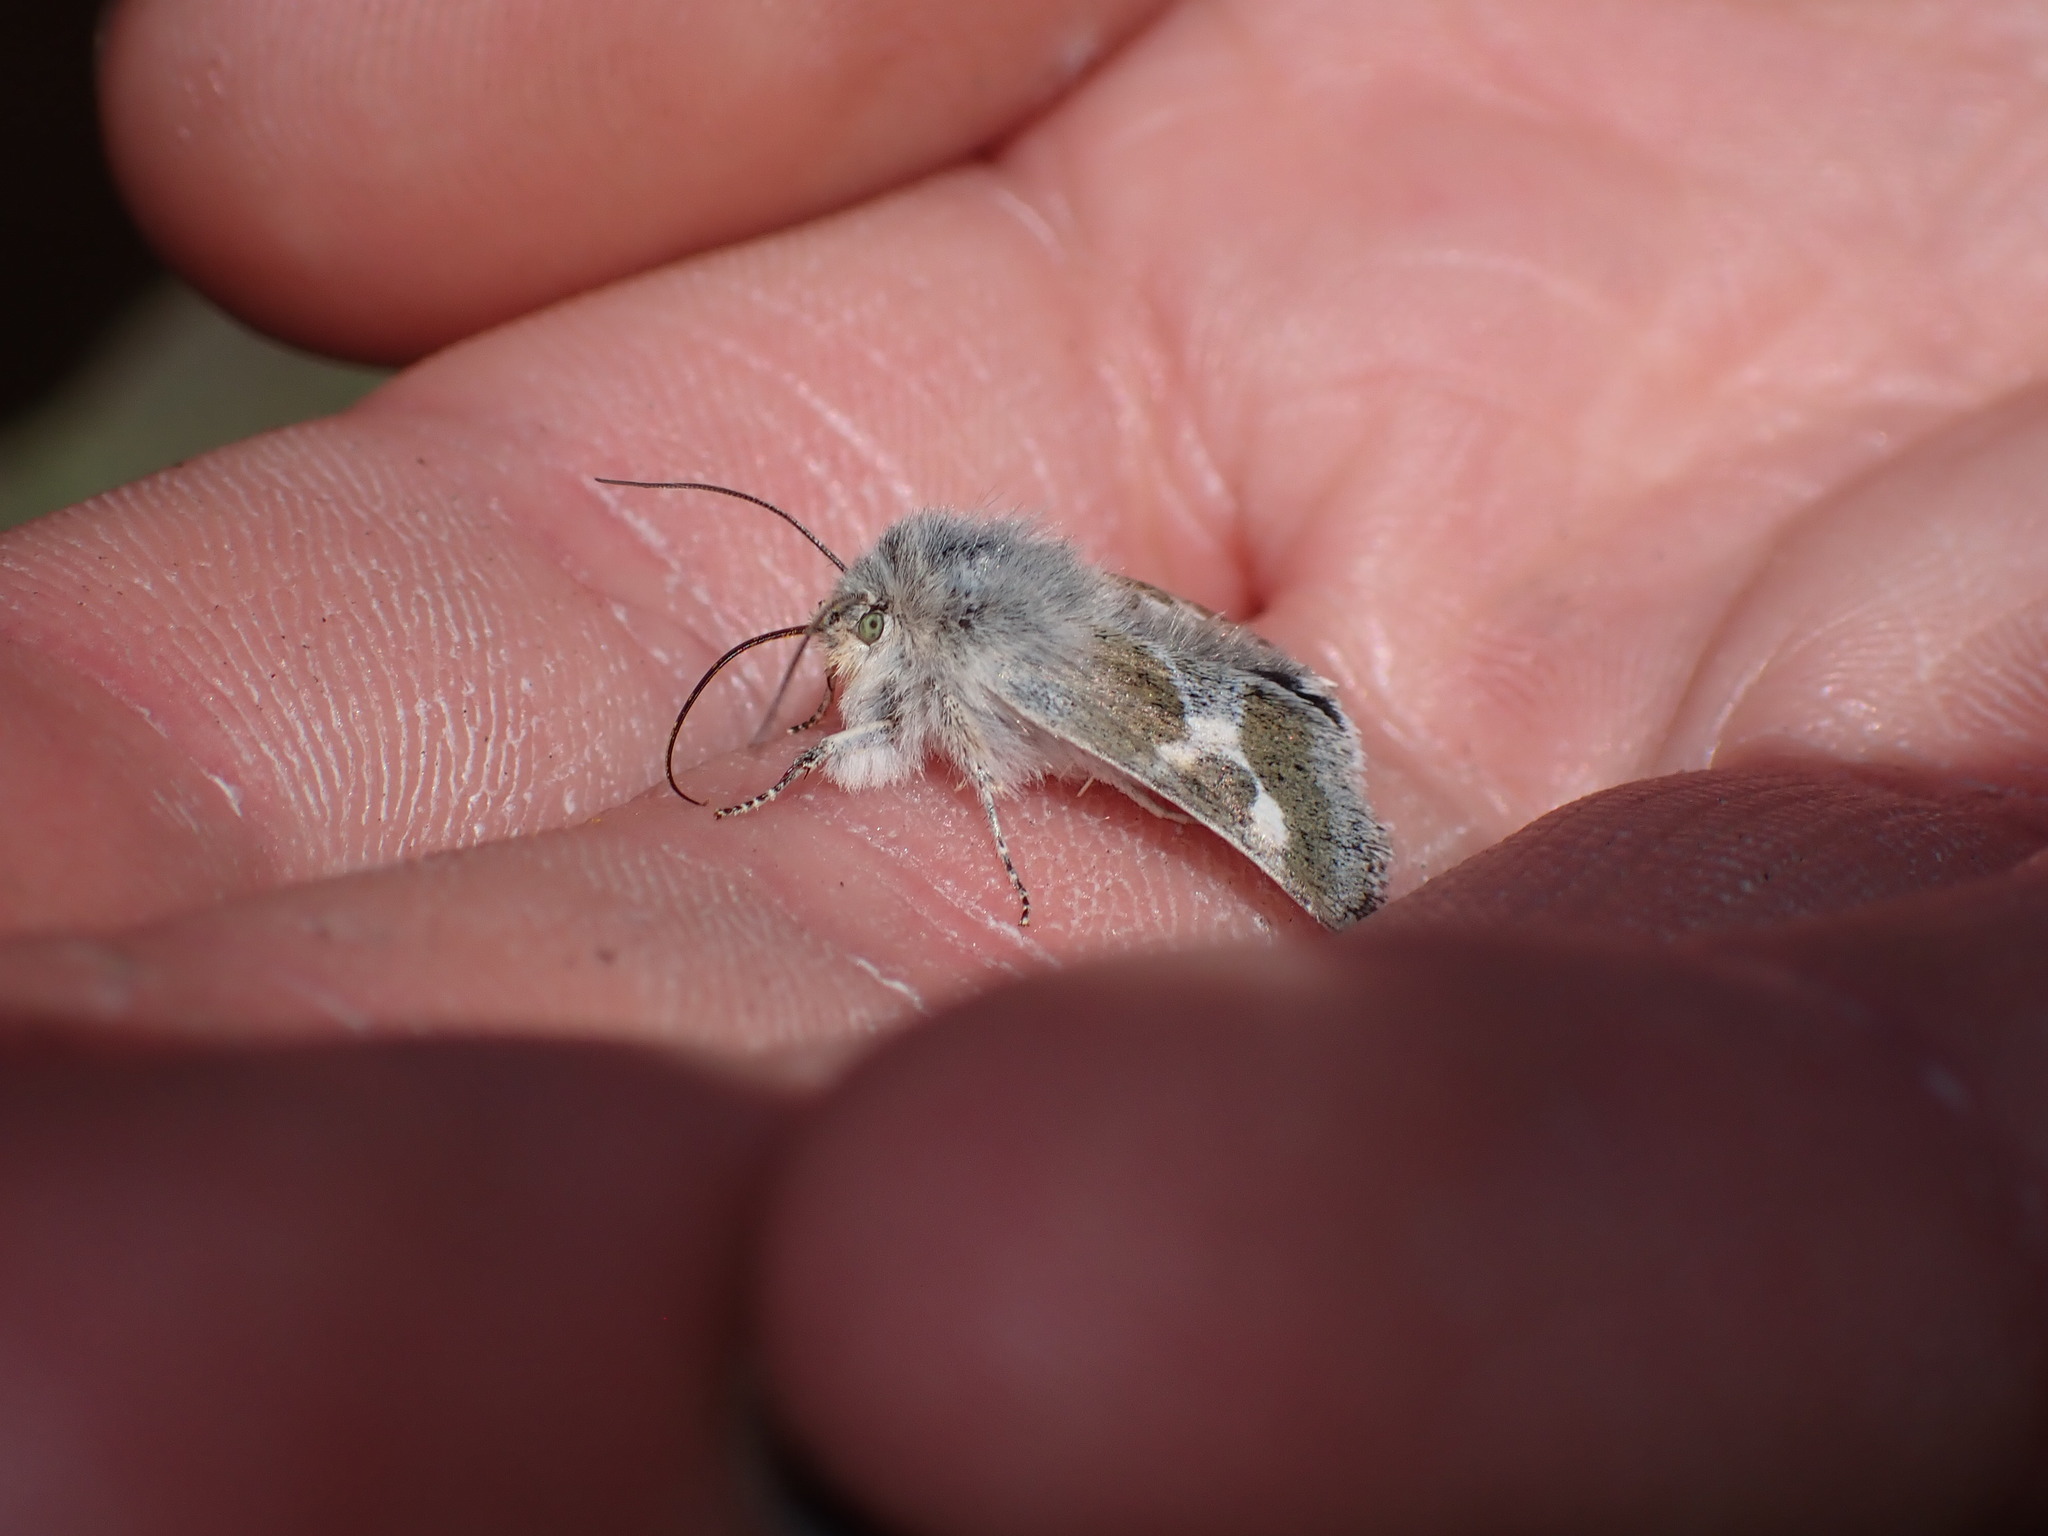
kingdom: Animalia
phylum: Arthropoda
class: Insecta
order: Lepidoptera
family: Noctuidae
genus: Schinia
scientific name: Schinia suetus
